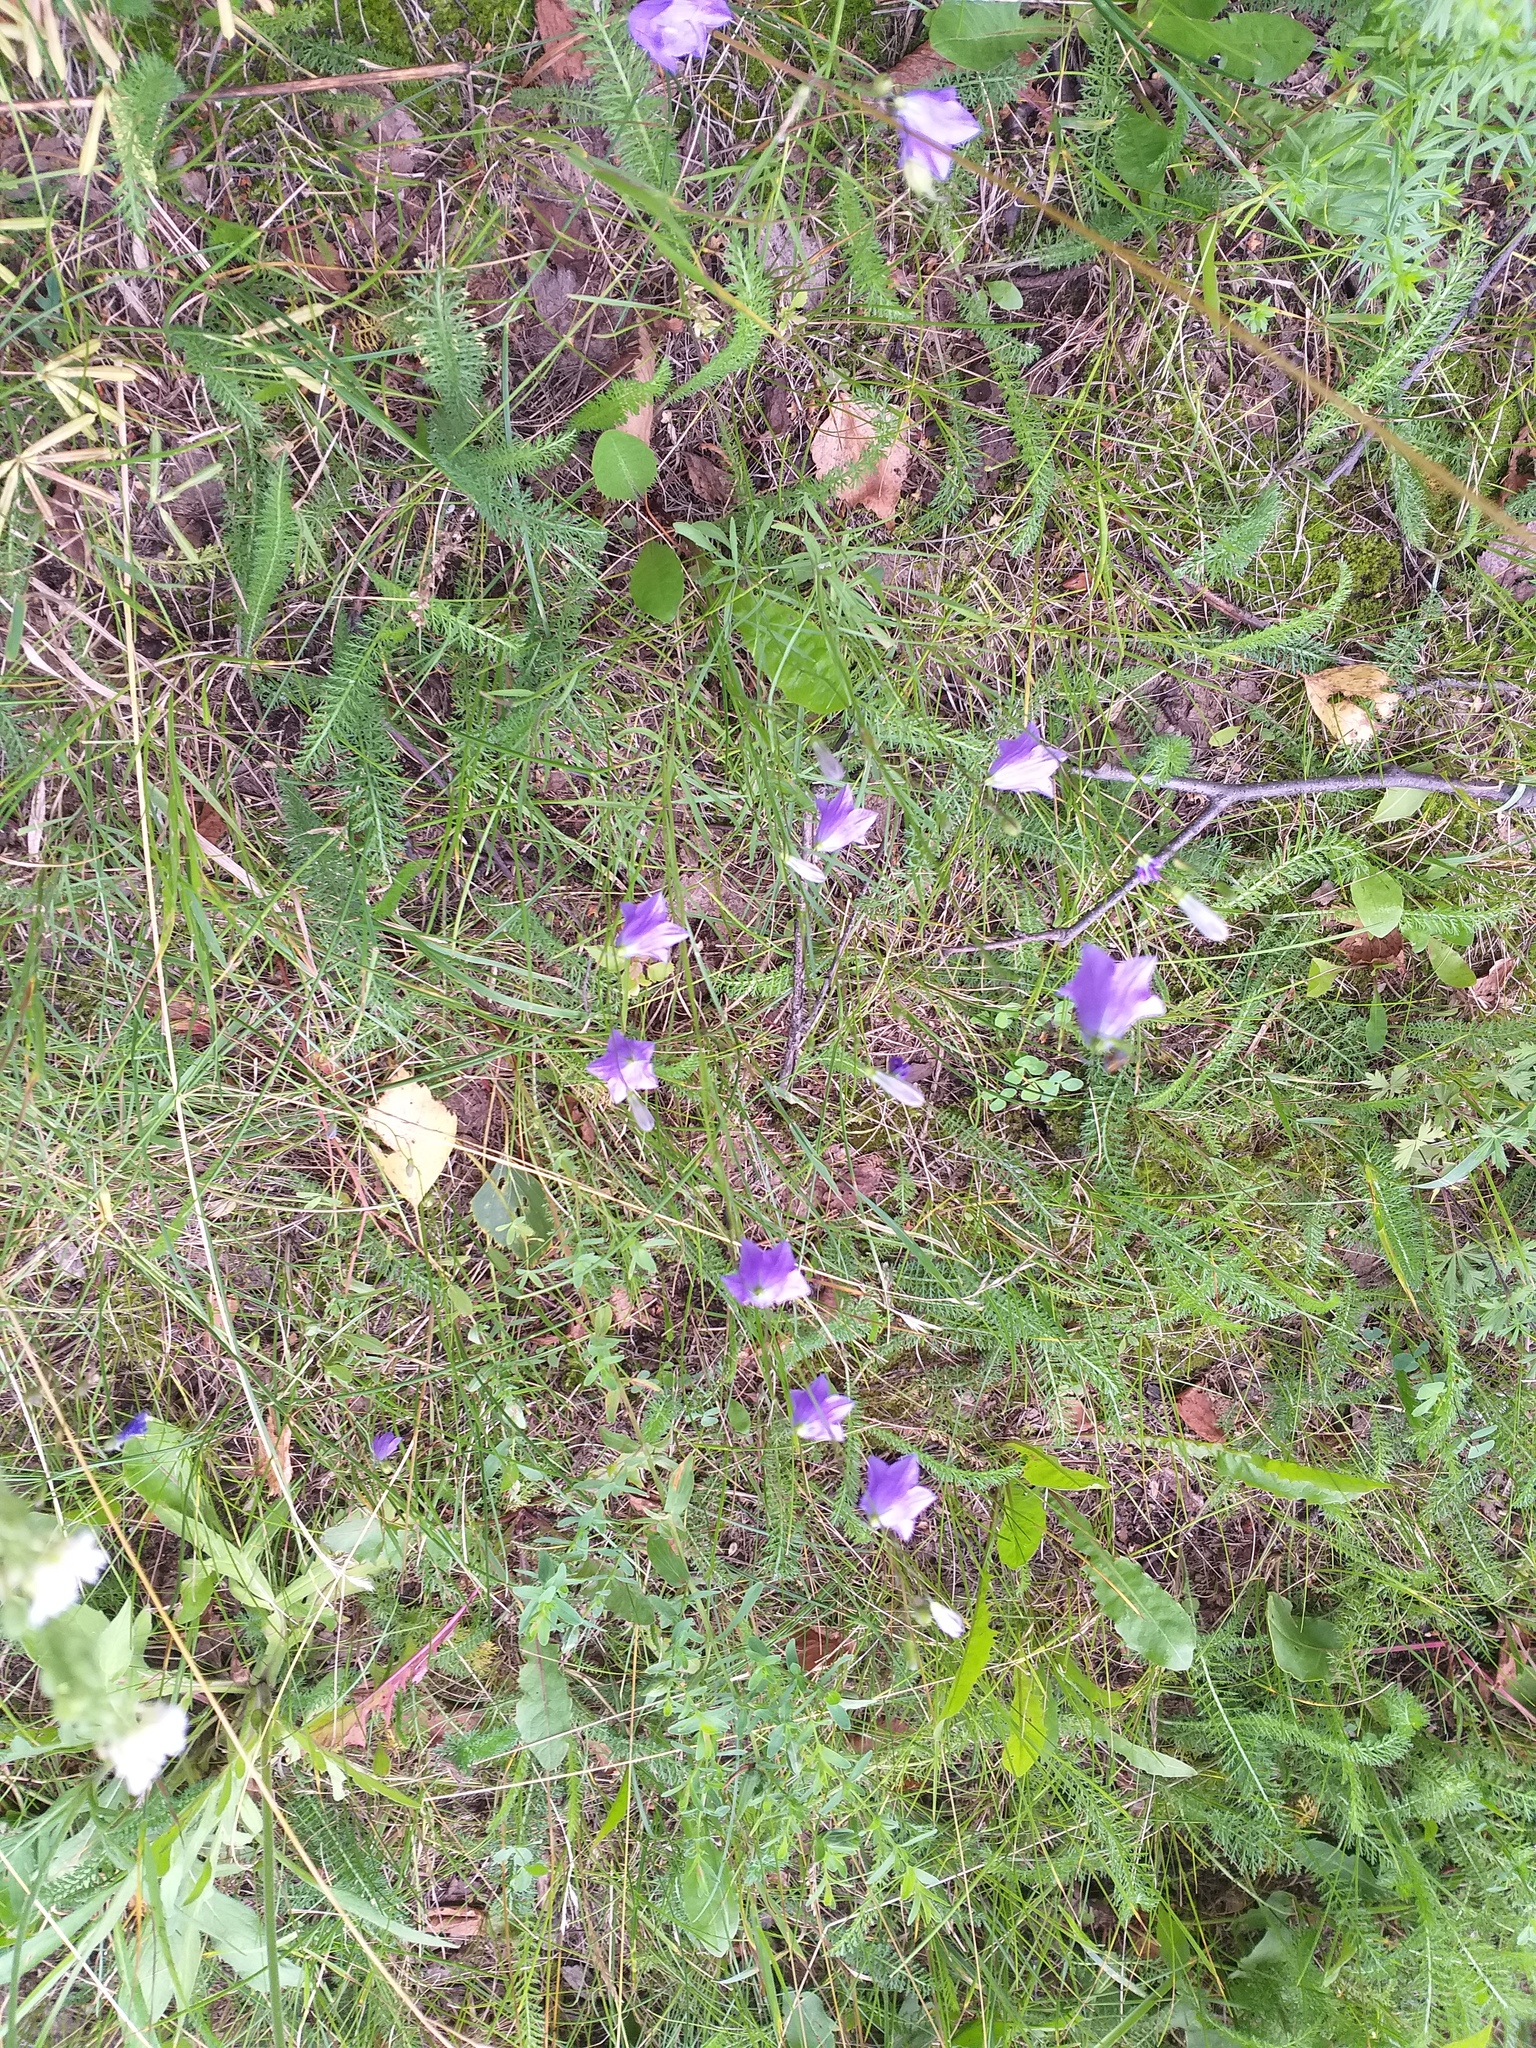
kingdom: Plantae
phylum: Tracheophyta
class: Magnoliopsida
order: Asterales
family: Campanulaceae
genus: Campanula
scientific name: Campanula rotundifolia
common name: Harebell
